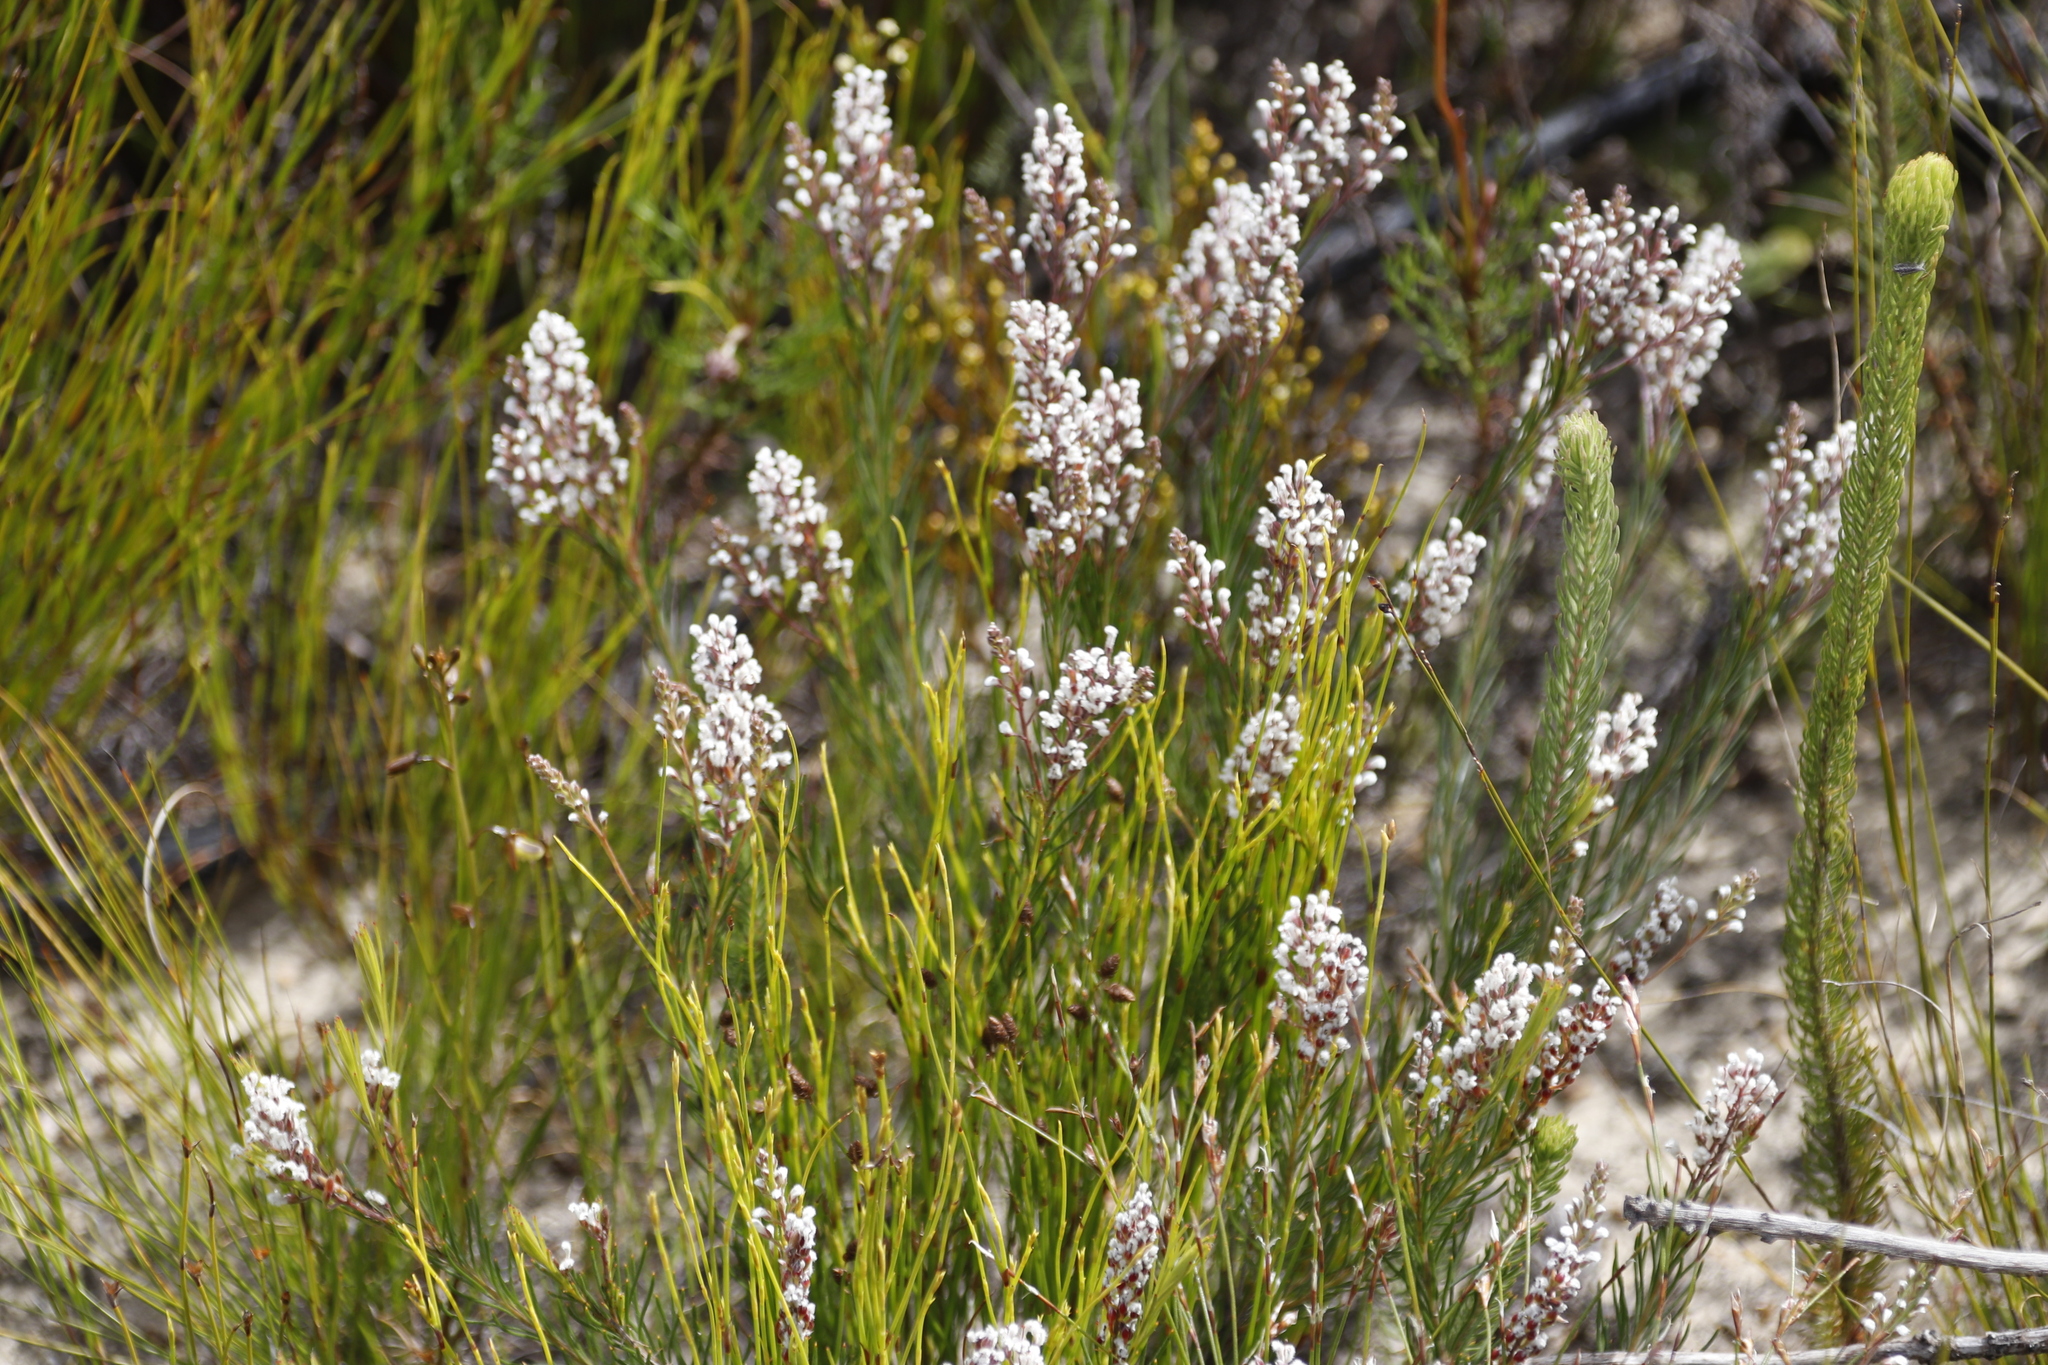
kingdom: Plantae
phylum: Tracheophyta
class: Magnoliopsida
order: Proteales
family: Proteaceae
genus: Spatalla
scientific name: Spatalla racemosa
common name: Lax-stalked spoon
